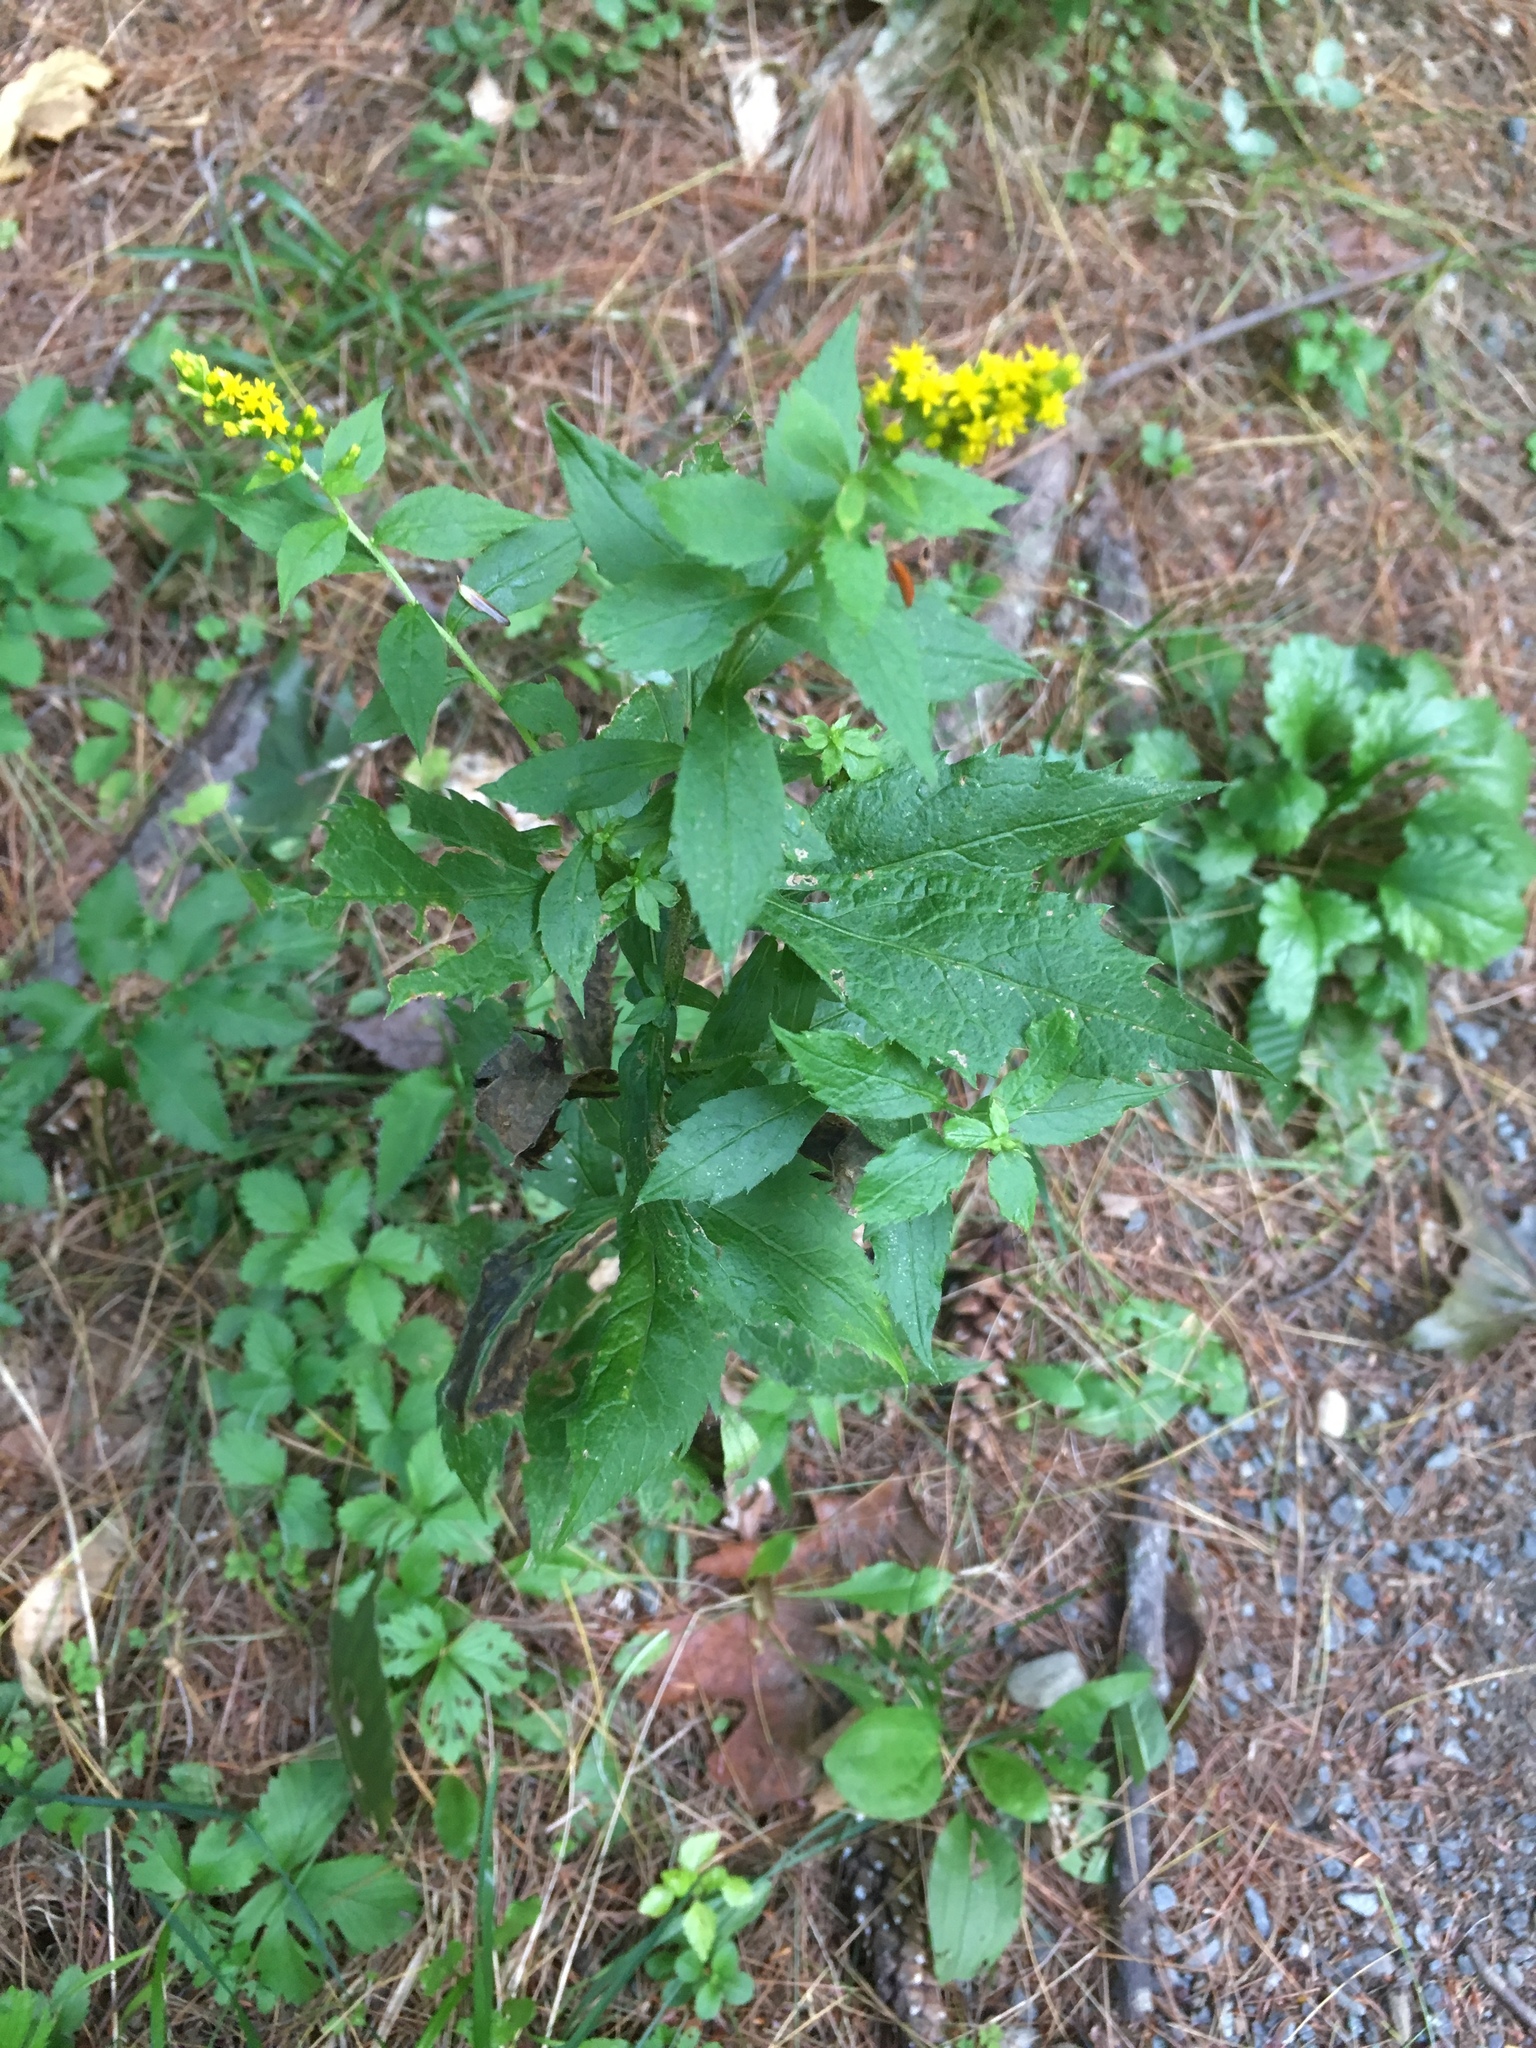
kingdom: Plantae
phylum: Tracheophyta
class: Magnoliopsida
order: Asterales
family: Asteraceae
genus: Solidago
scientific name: Solidago rugosa
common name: Rough-stemmed goldenrod
